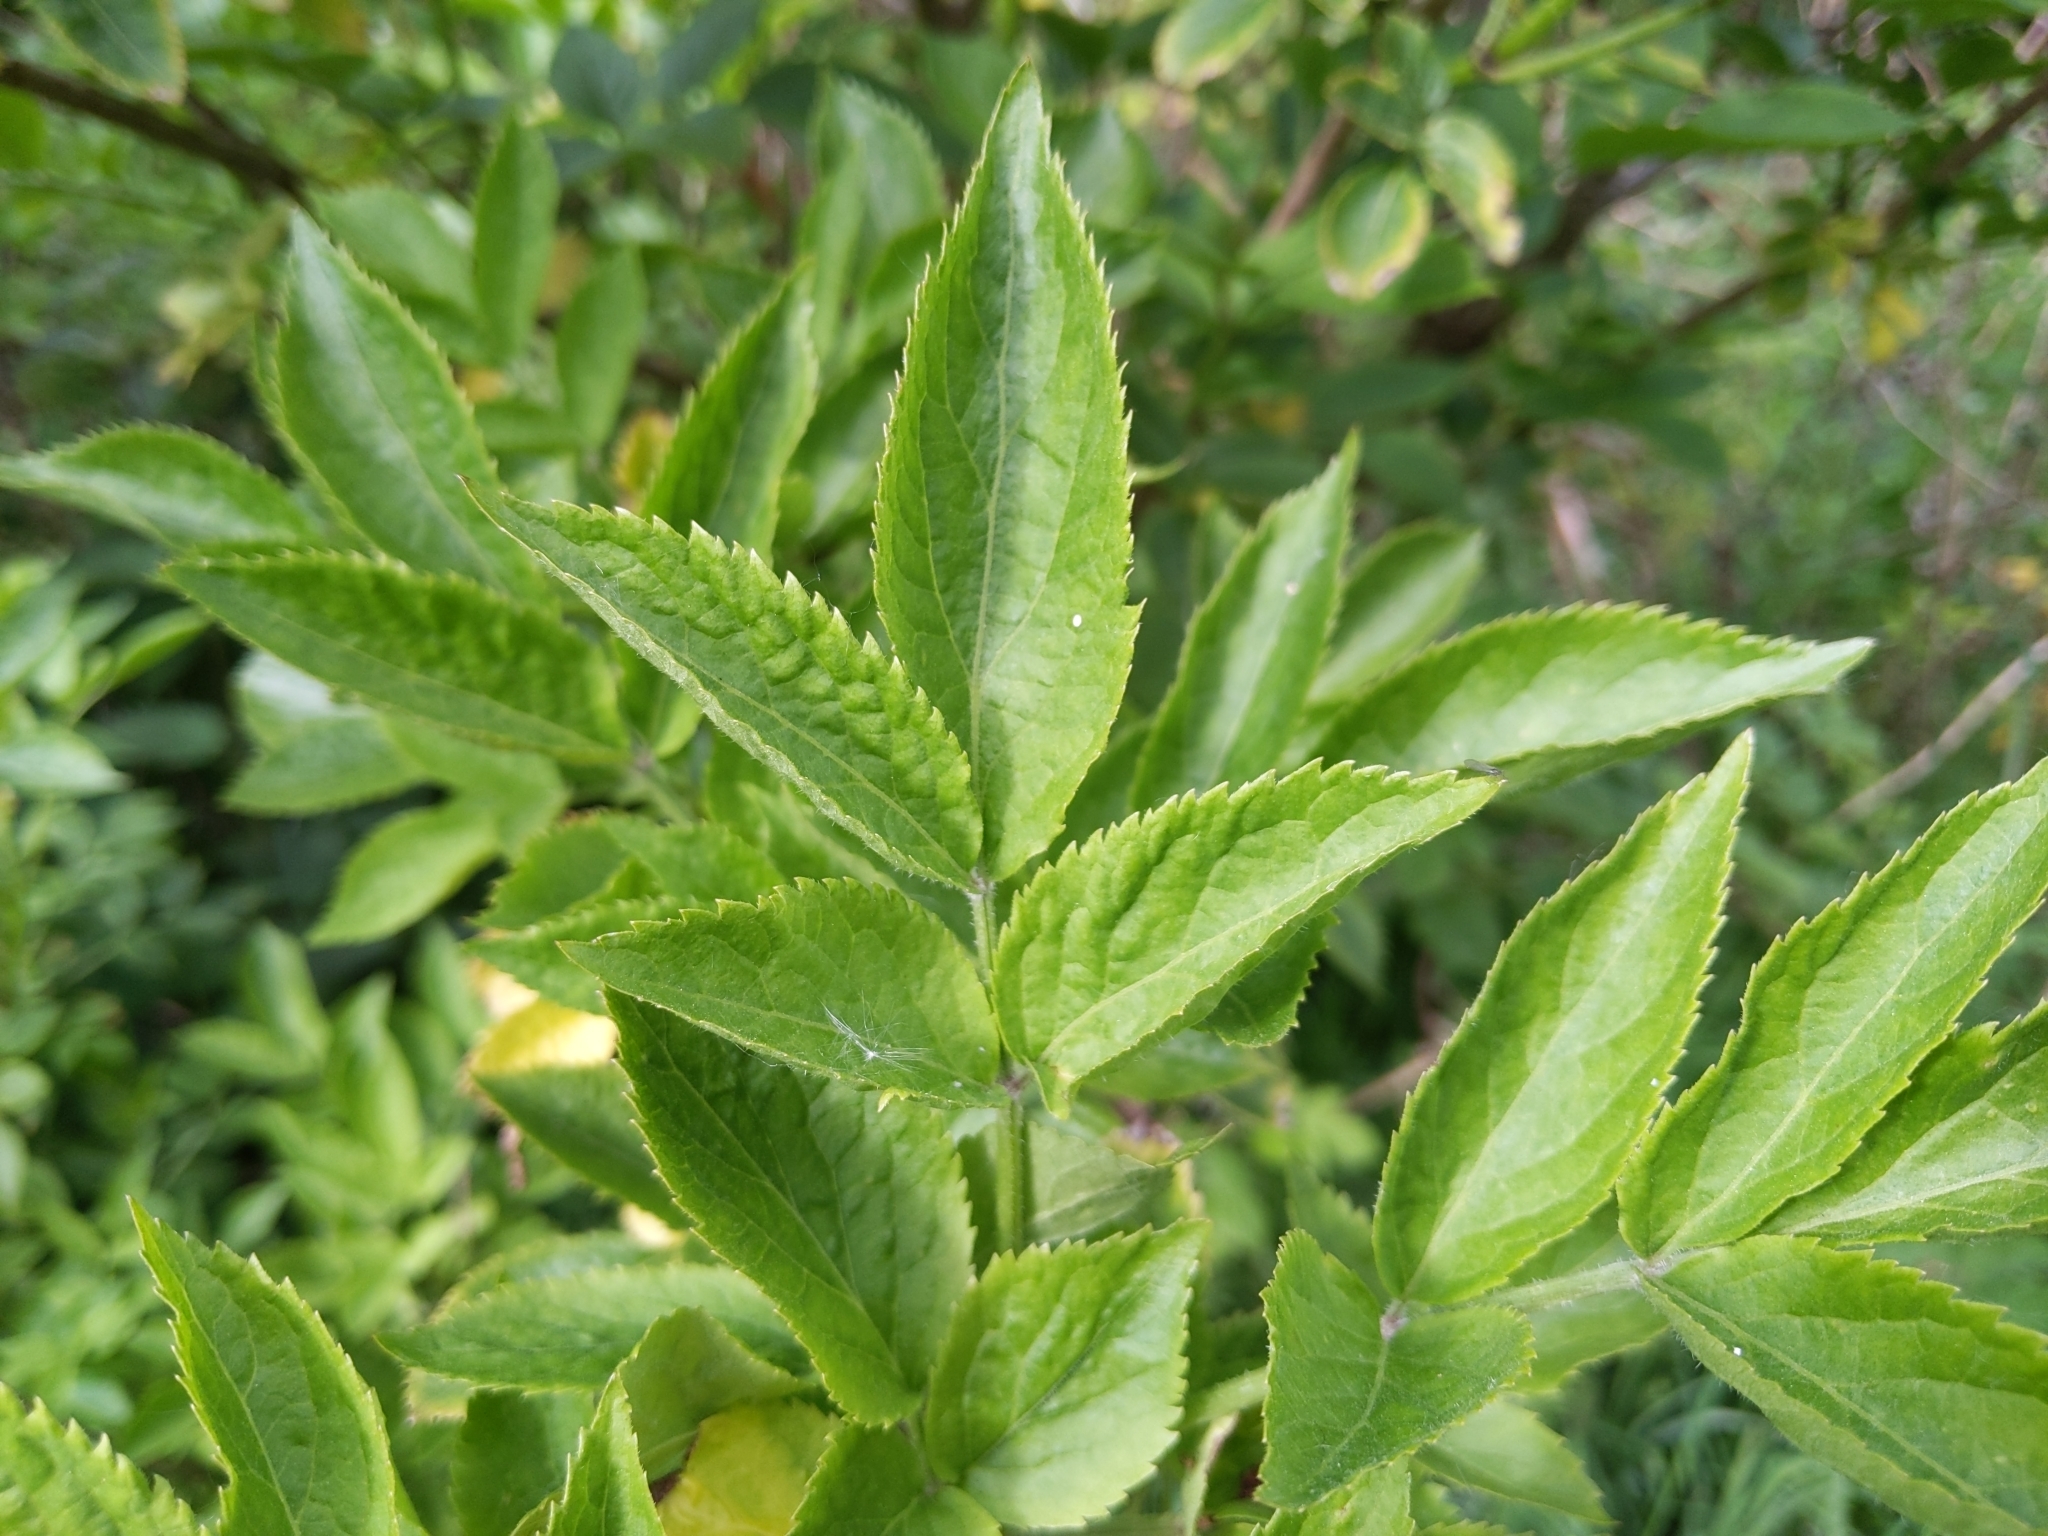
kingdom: Plantae
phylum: Tracheophyta
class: Magnoliopsida
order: Dipsacales
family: Viburnaceae
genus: Sambucus
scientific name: Sambucus nigra
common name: Elder
